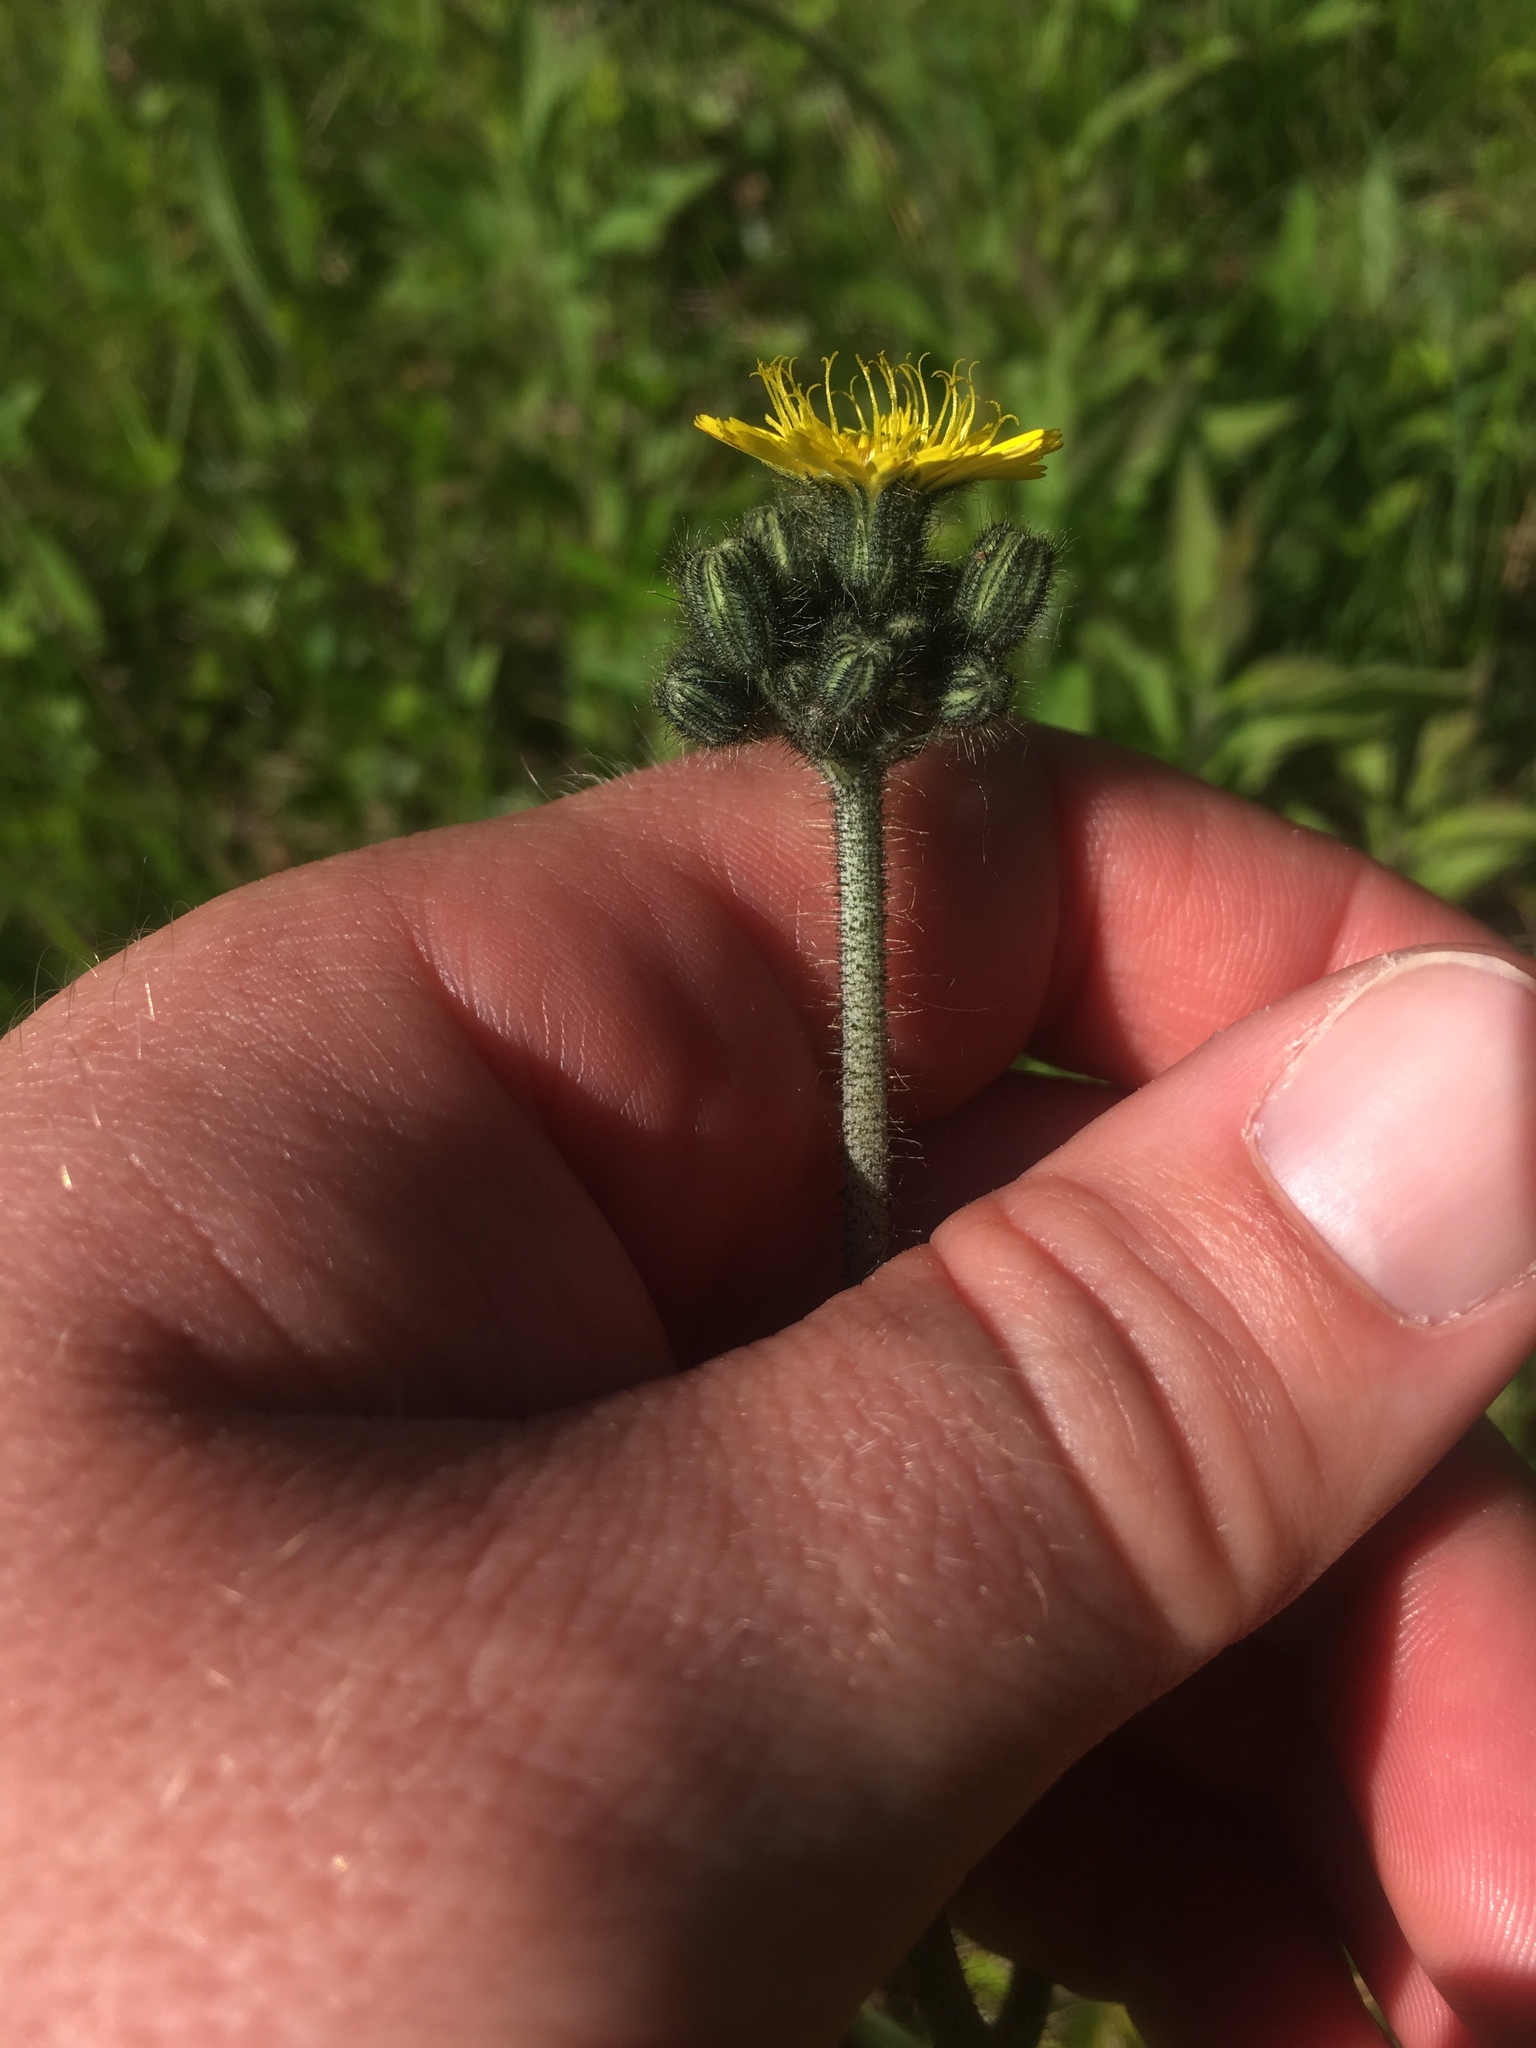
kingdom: Plantae
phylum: Tracheophyta
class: Magnoliopsida
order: Asterales
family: Asteraceae
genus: Pilosella
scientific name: Pilosella caespitosa
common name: Yellow fox-and-cubs
